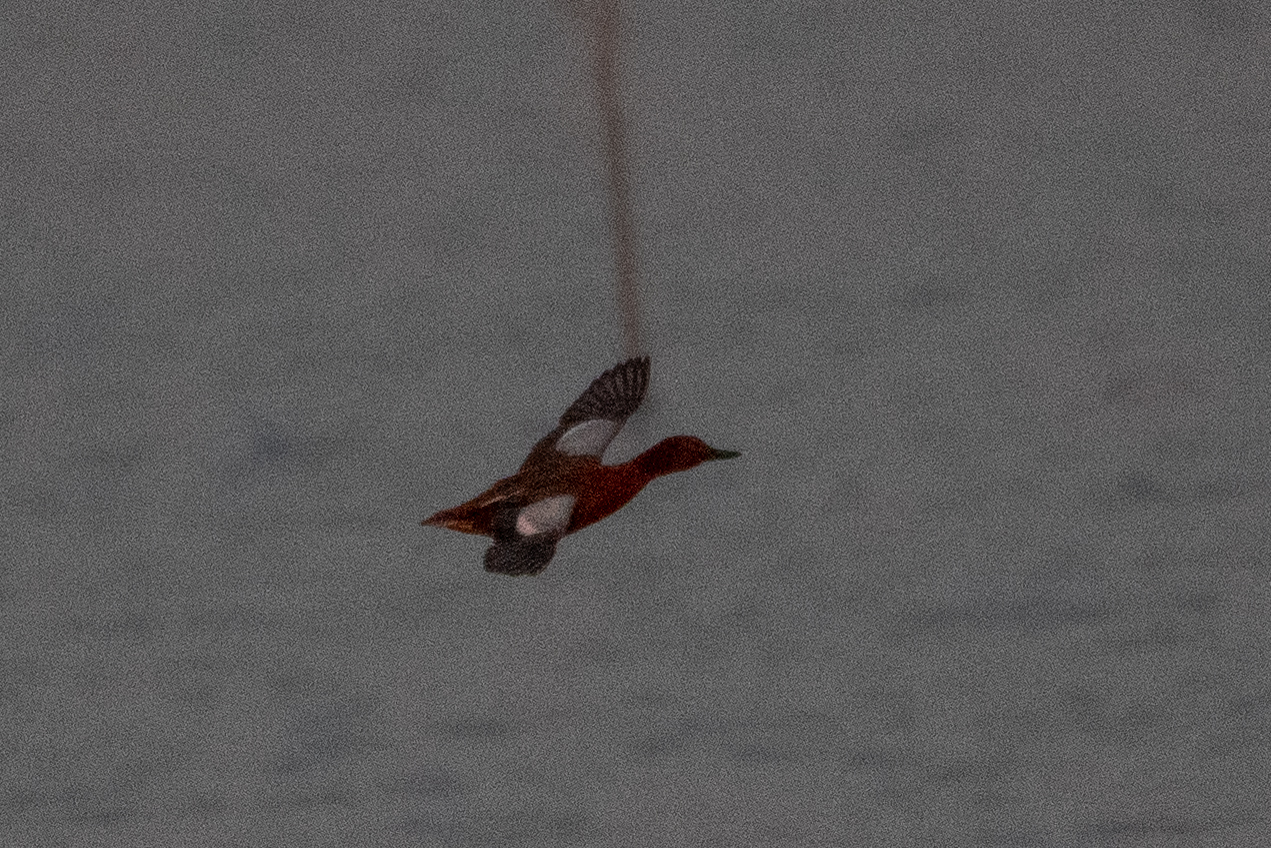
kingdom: Animalia
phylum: Chordata
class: Aves
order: Anseriformes
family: Anatidae
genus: Spatula
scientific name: Spatula cyanoptera
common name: Cinnamon teal
